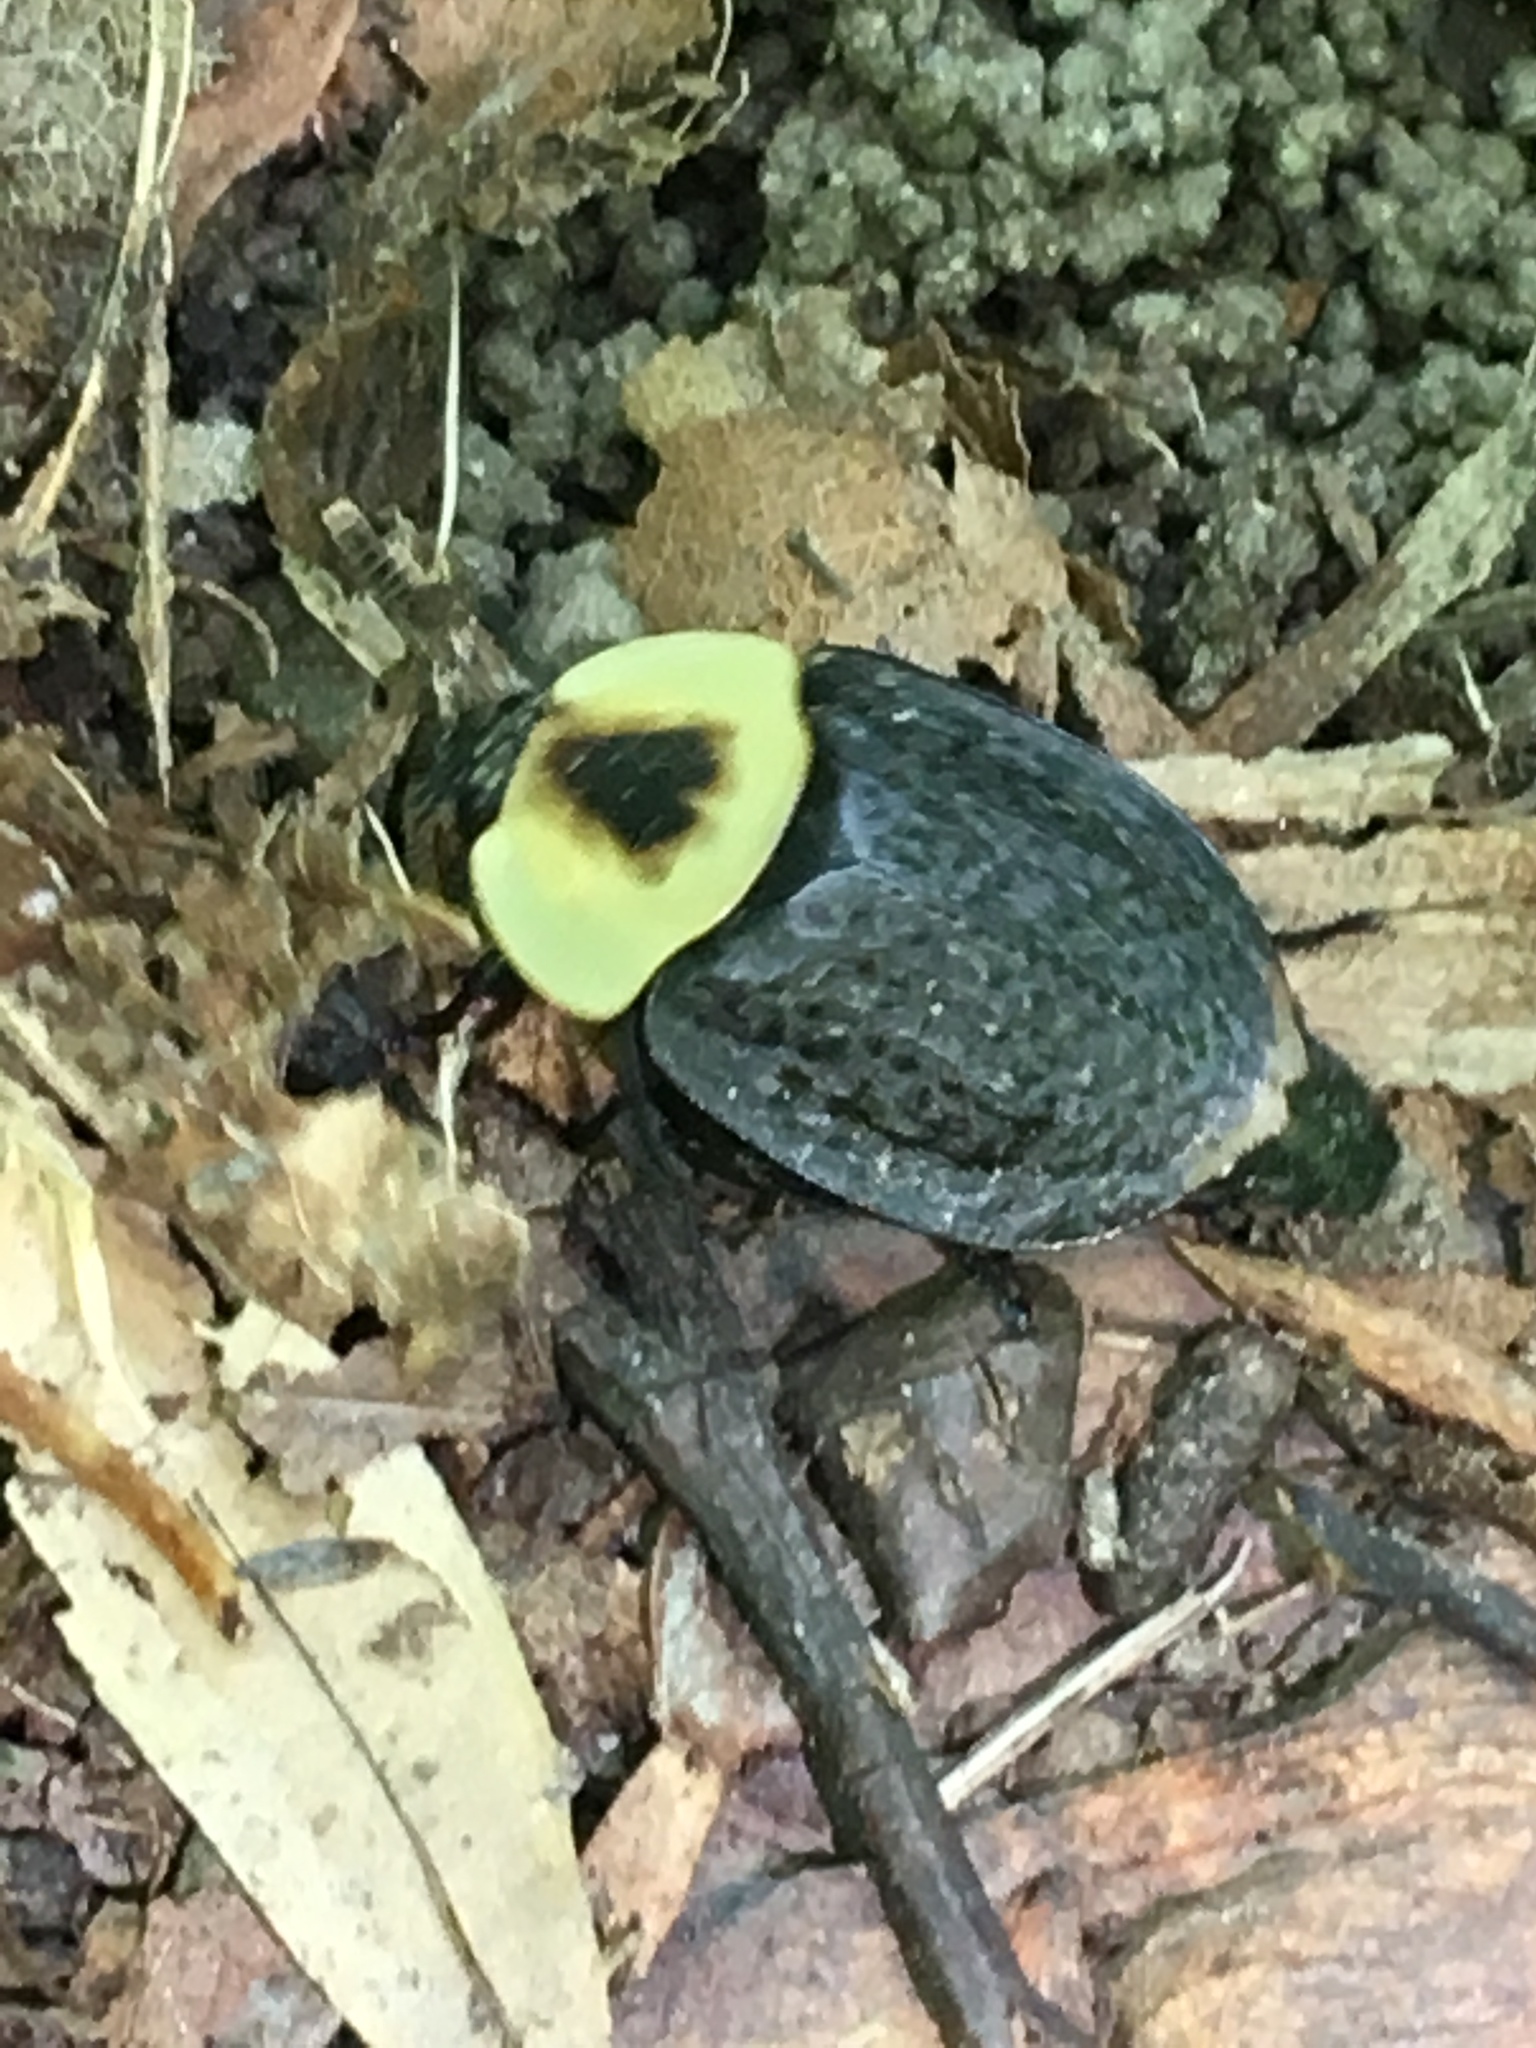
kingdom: Animalia
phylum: Arthropoda
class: Insecta
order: Coleoptera
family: Staphylinidae
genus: Necrophila
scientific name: Necrophila americana
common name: American carrion beetle
